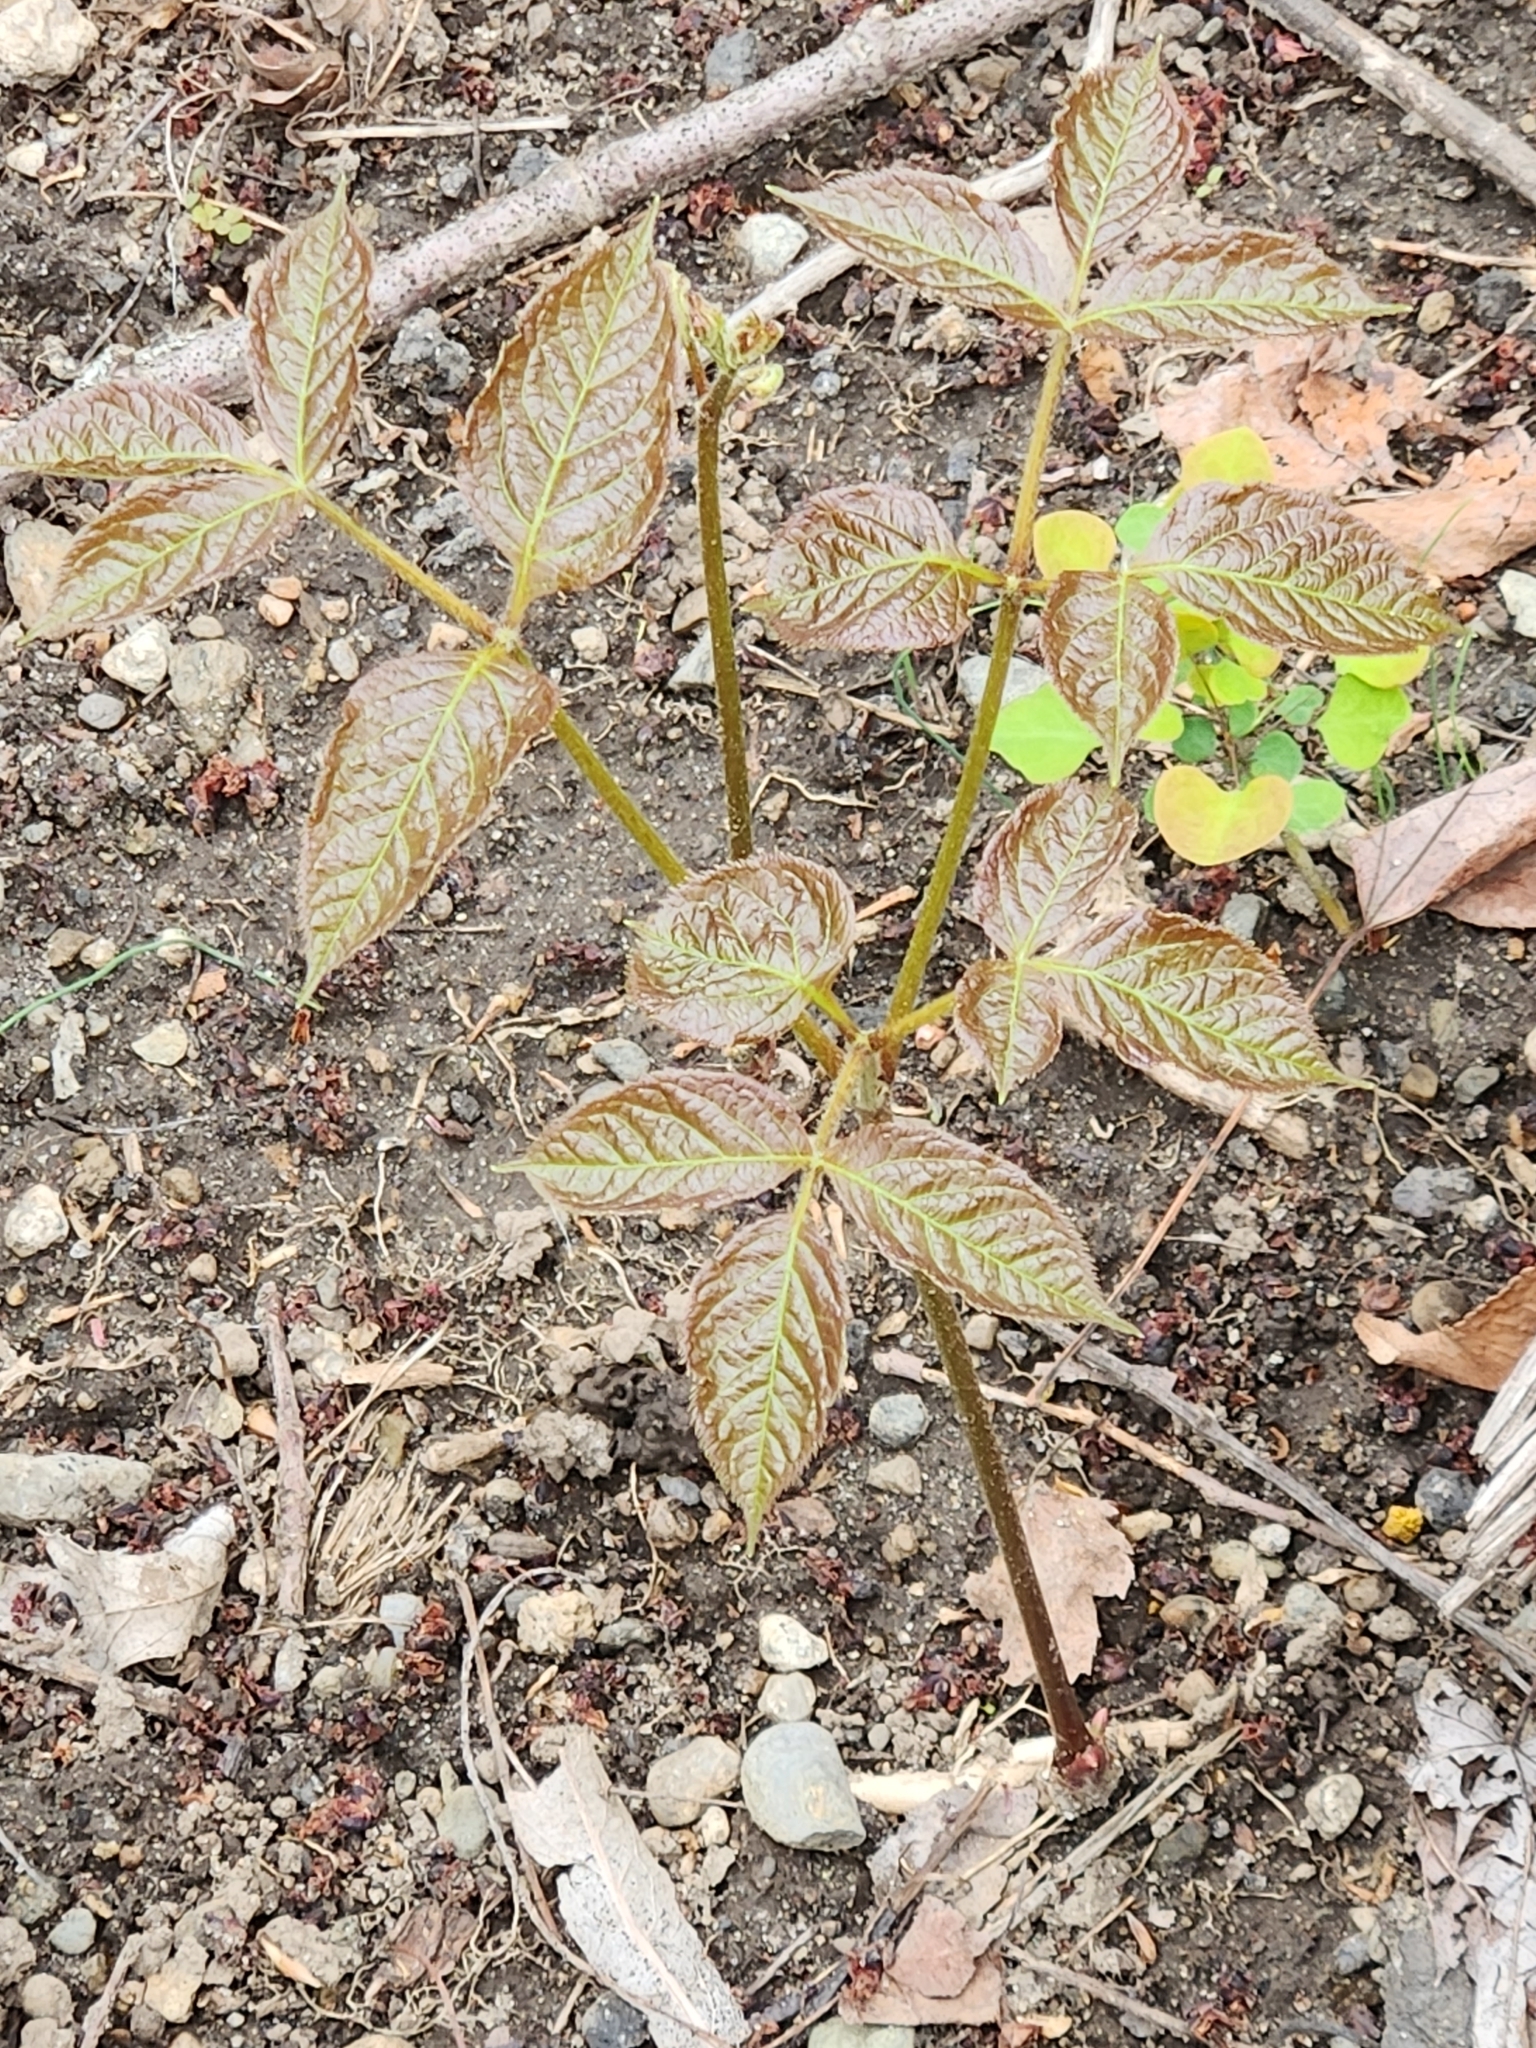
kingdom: Plantae
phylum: Tracheophyta
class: Magnoliopsida
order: Apiales
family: Araliaceae
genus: Aralia
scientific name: Aralia nudicaulis
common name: Wild sarsaparilla
